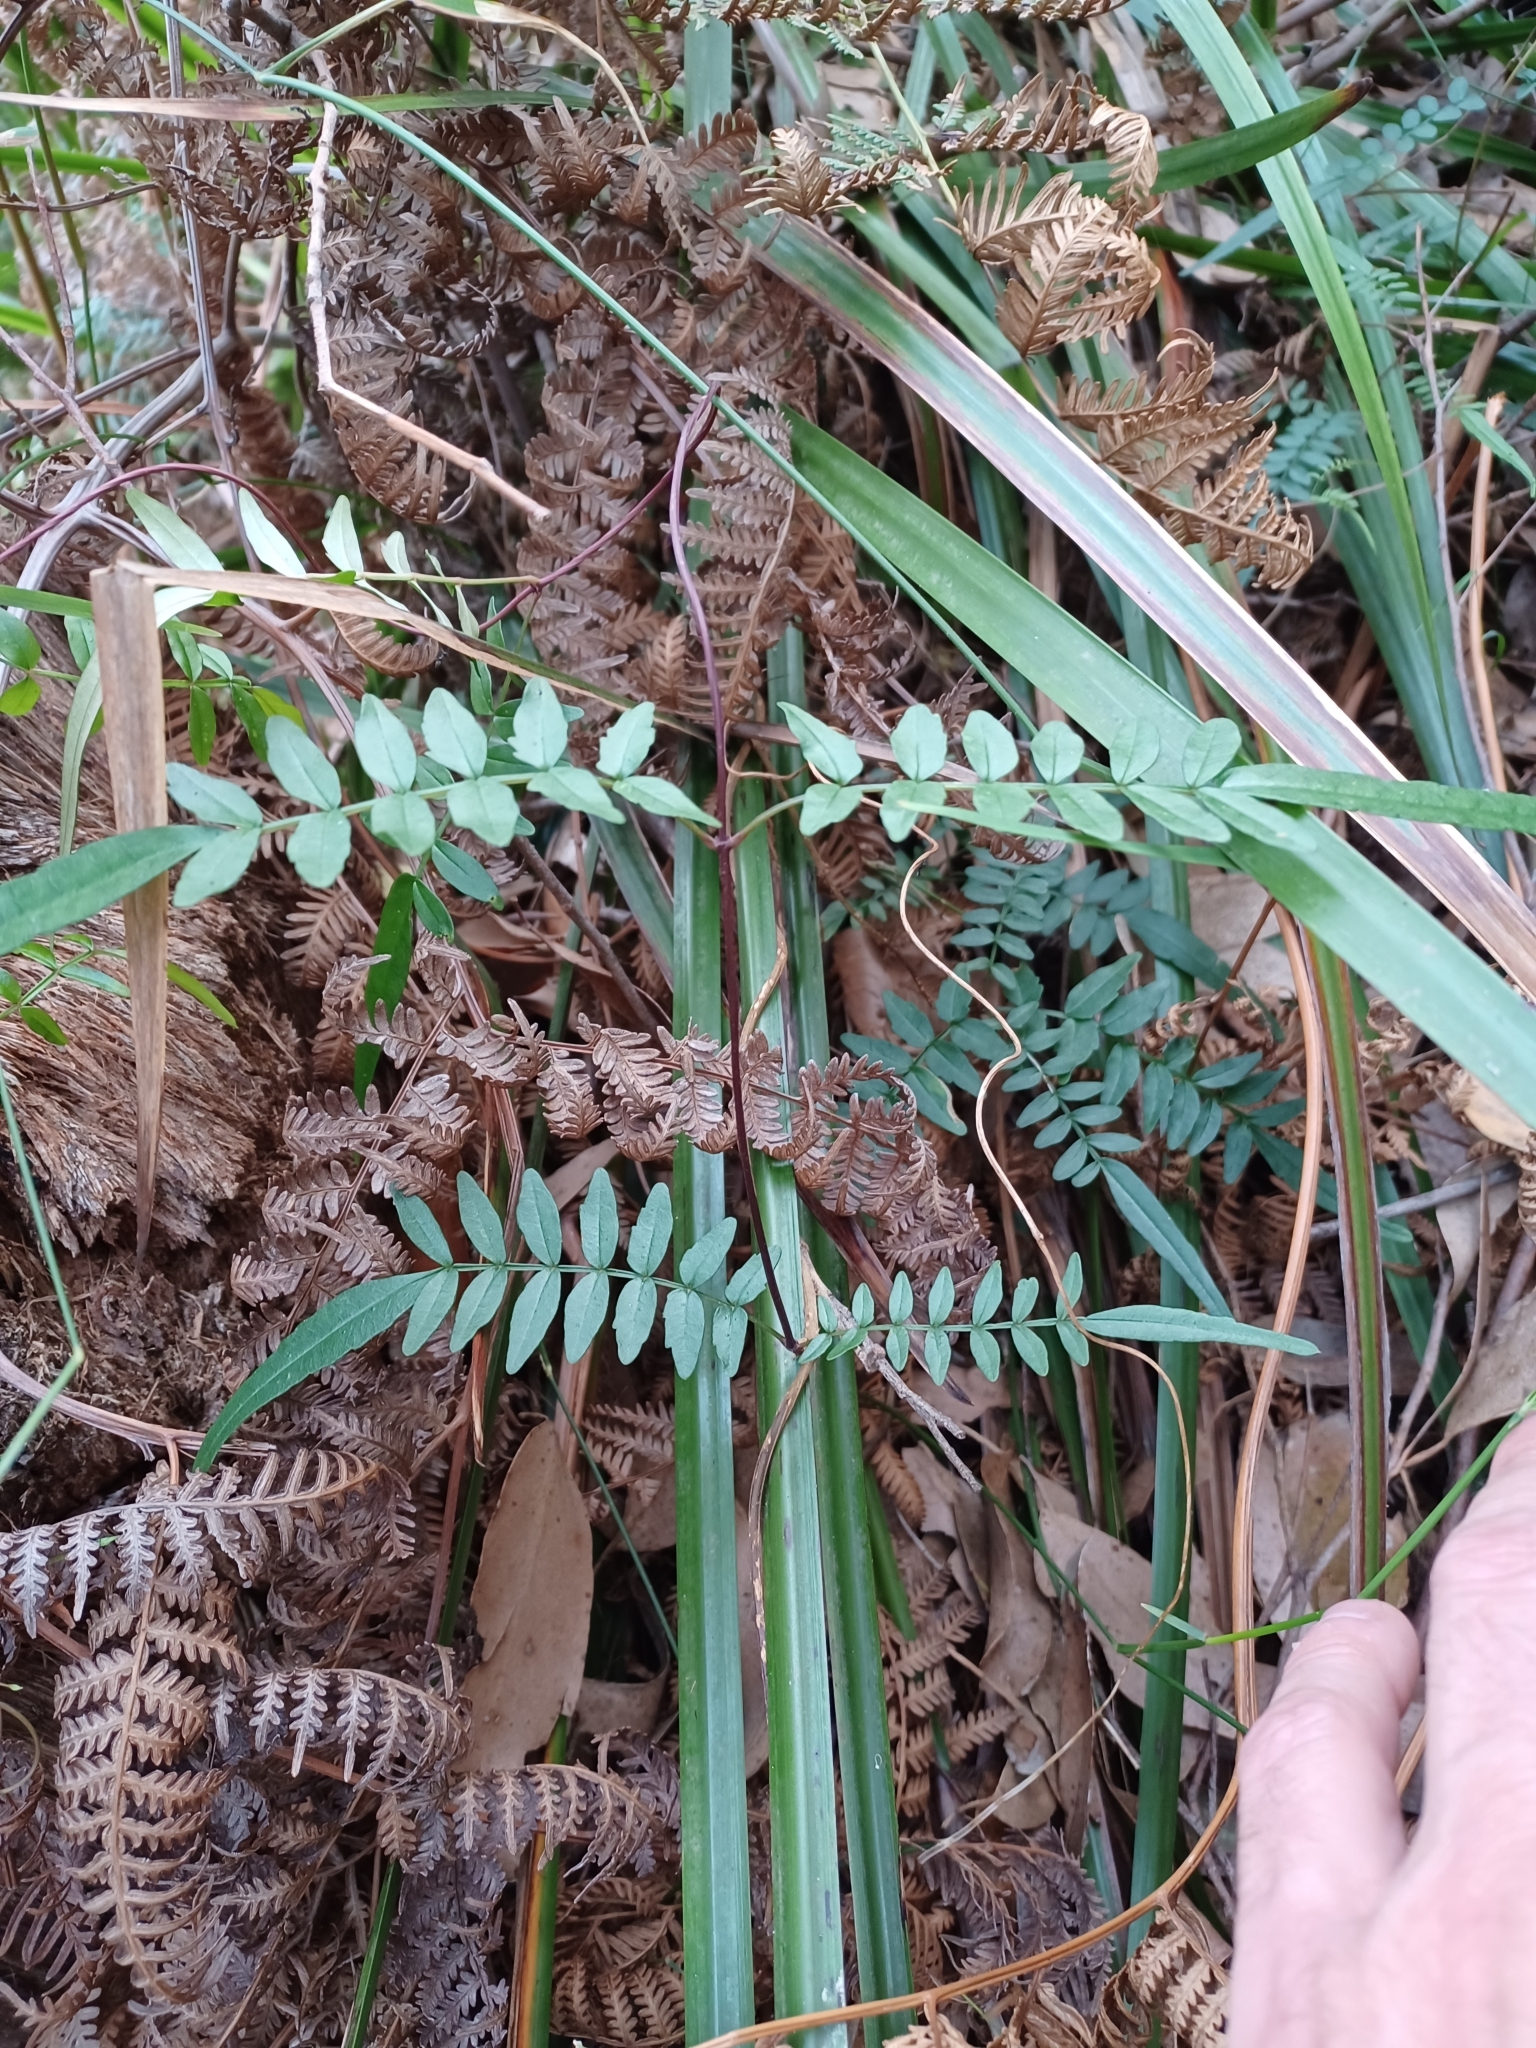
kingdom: Plantae
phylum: Tracheophyta
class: Magnoliopsida
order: Lamiales
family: Bignoniaceae
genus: Pandorea
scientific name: Pandorea pandorana
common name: Wonga-wonga-vine
